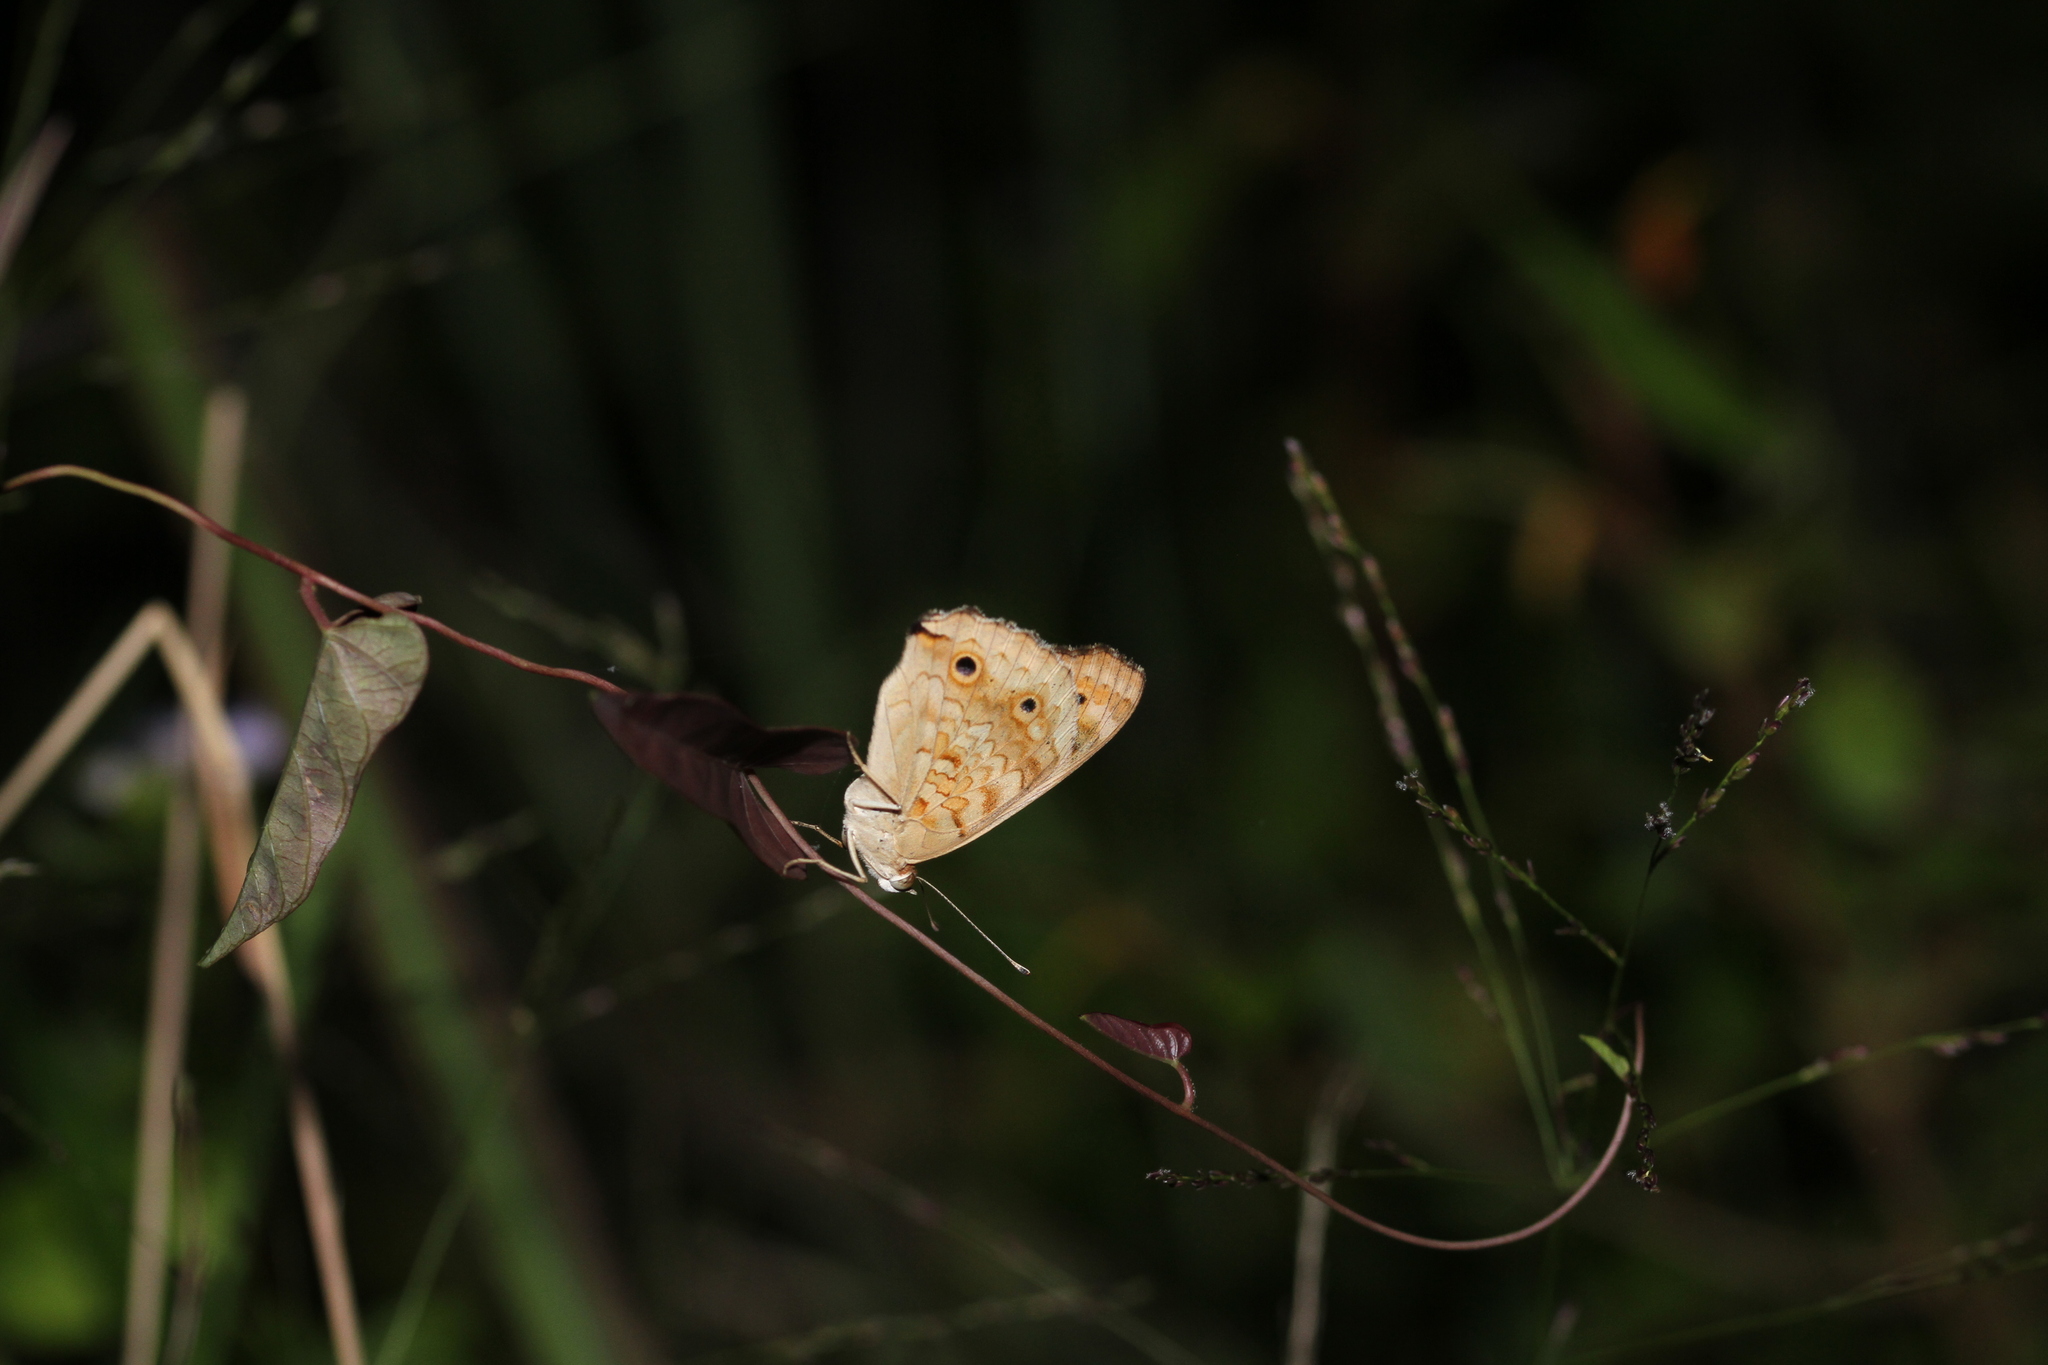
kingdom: Animalia
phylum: Arthropoda
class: Insecta
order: Lepidoptera
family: Nymphalidae
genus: Junonia
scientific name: Junonia orithya
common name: Blue pansy
